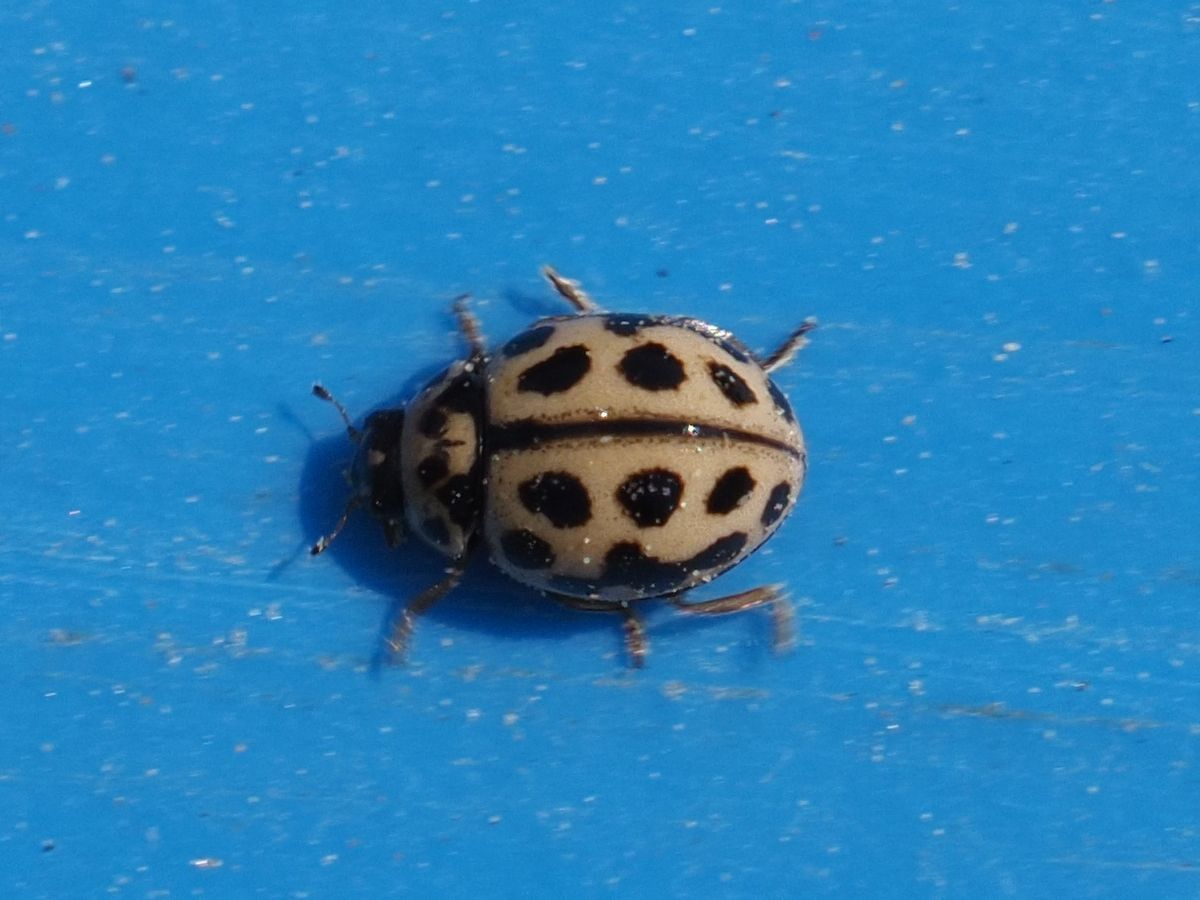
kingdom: Animalia
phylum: Arthropoda
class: Insecta
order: Coleoptera
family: Coccinellidae
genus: Tytthaspis
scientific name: Tytthaspis sedecimpunctata
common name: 16-spot ladybird
